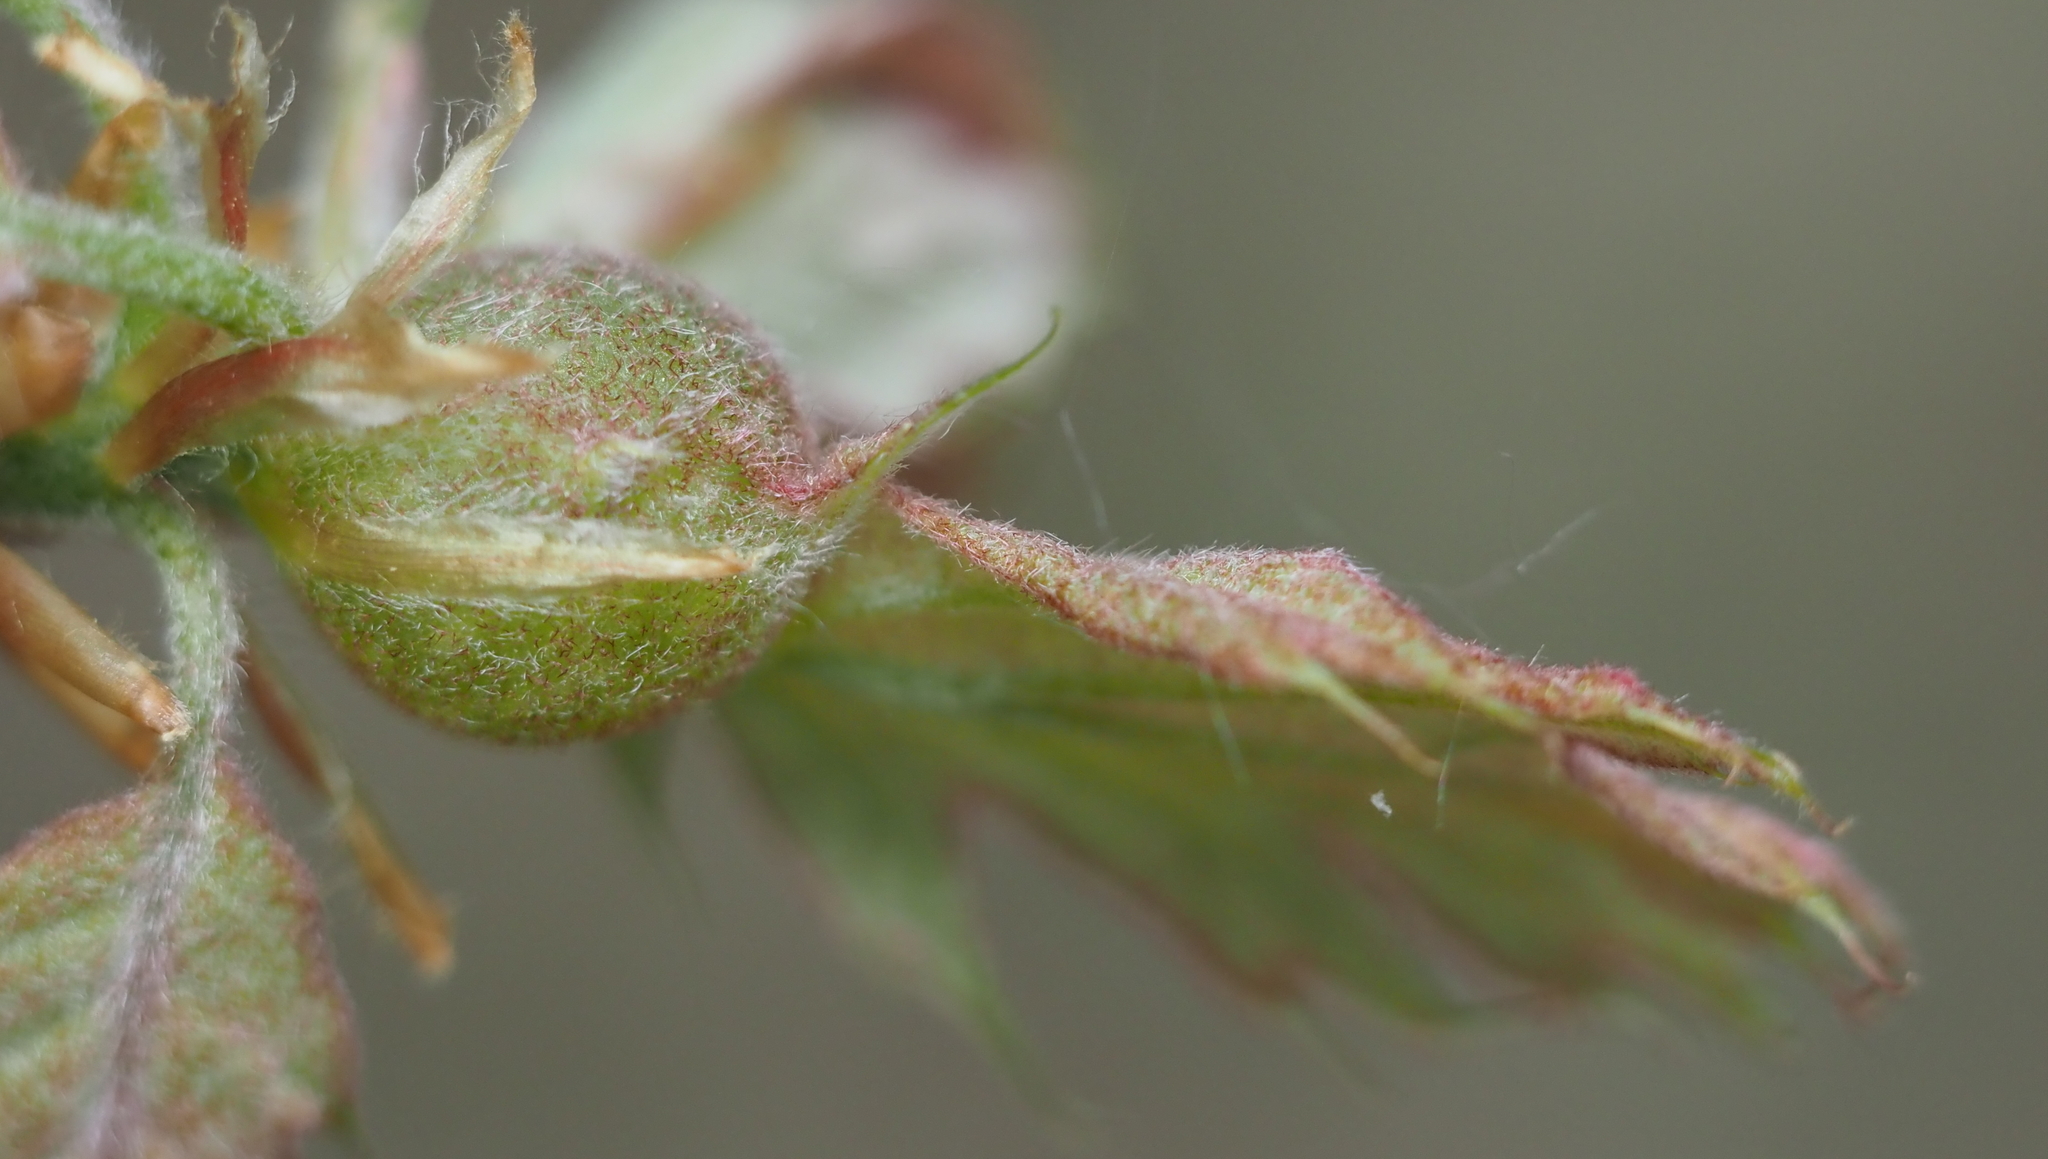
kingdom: Animalia
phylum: Arthropoda
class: Insecta
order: Hymenoptera
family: Cynipidae
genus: Dryocosmus
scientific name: Dryocosmus quercuspalustris
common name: Succulent oak gall wasp
